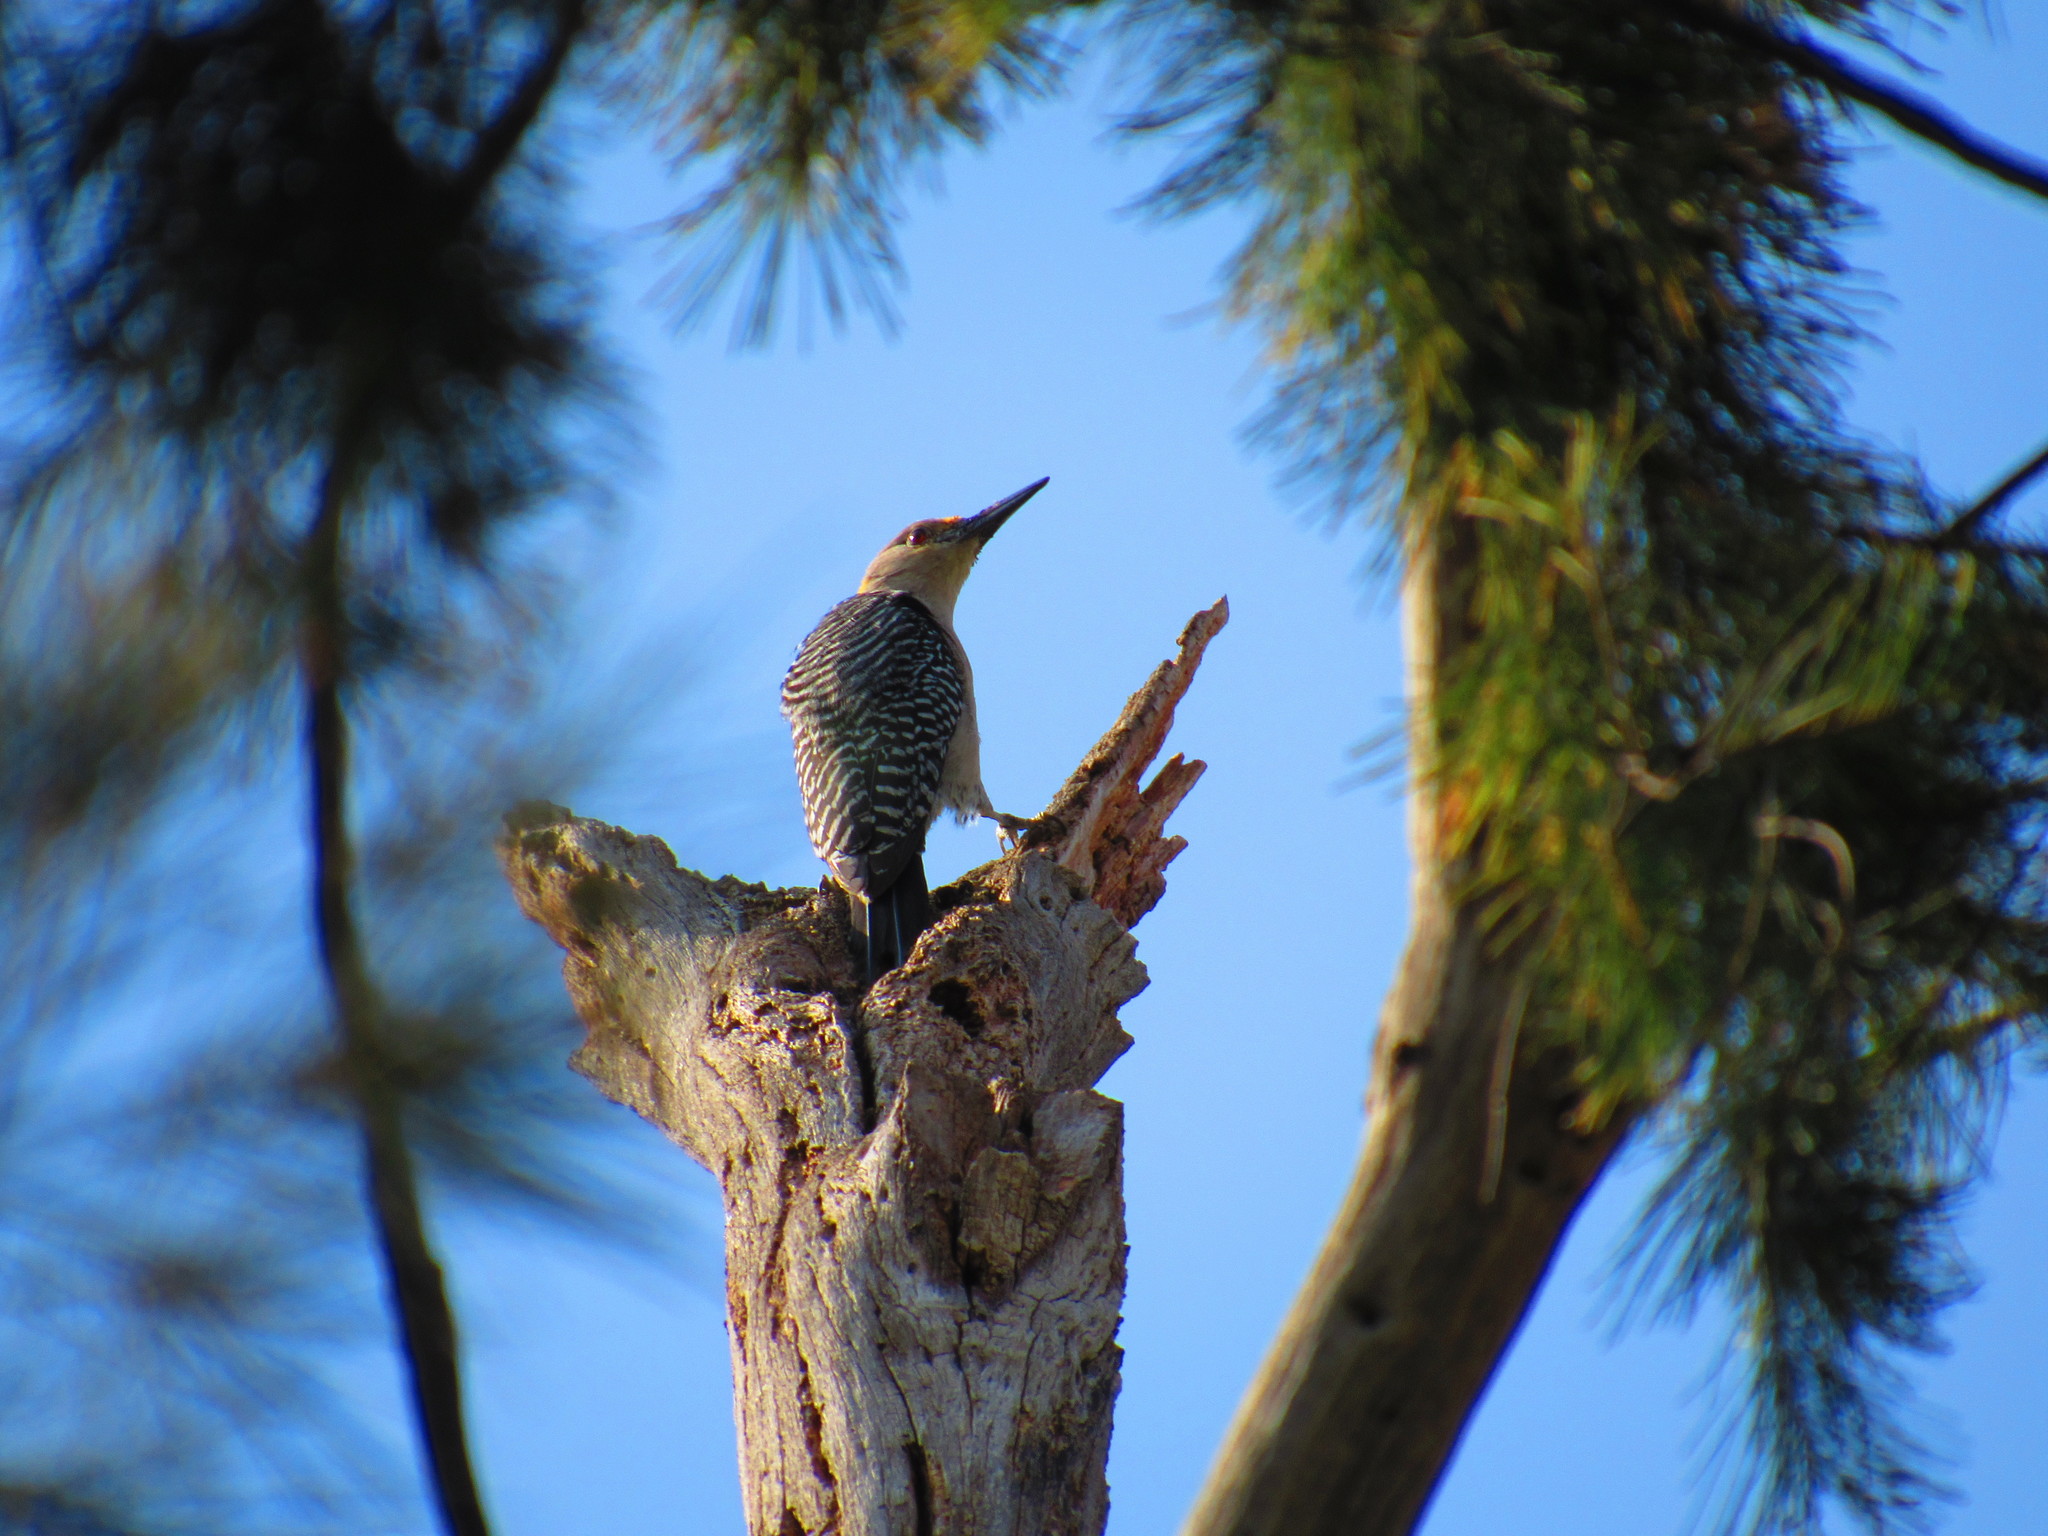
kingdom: Animalia
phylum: Chordata
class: Aves
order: Piciformes
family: Picidae
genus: Melanerpes
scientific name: Melanerpes aurifrons
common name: Golden-fronted woodpecker
